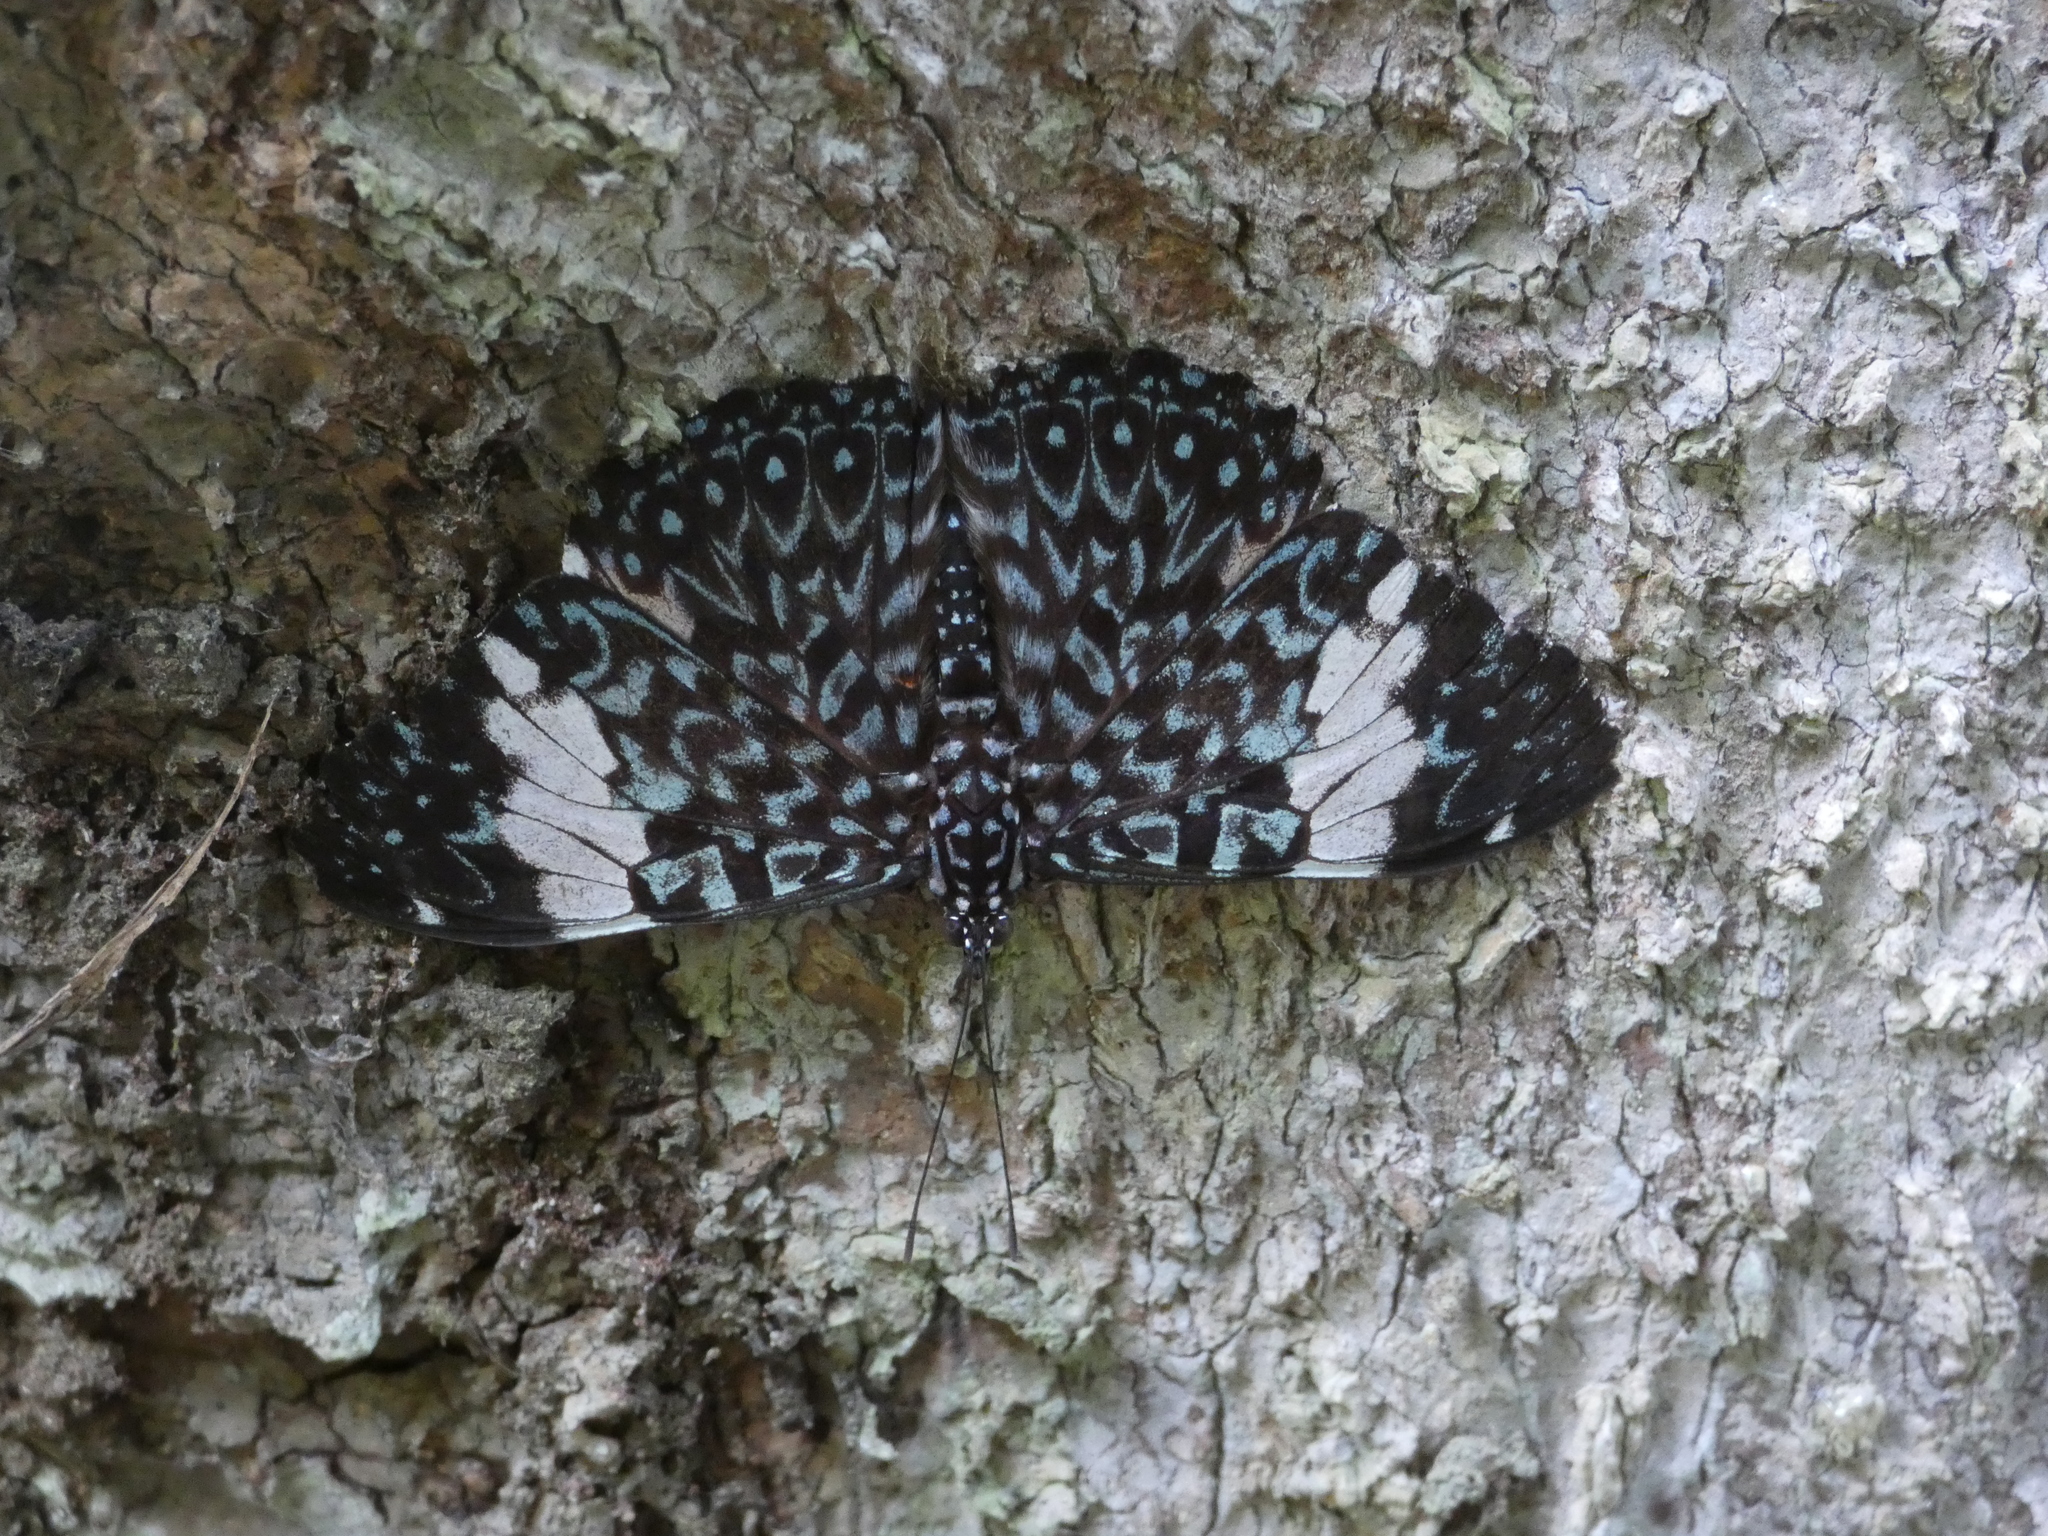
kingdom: Animalia
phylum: Arthropoda
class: Insecta
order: Lepidoptera
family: Nymphalidae
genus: Hamadryas
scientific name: Hamadryas amphinome
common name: Red cracker
